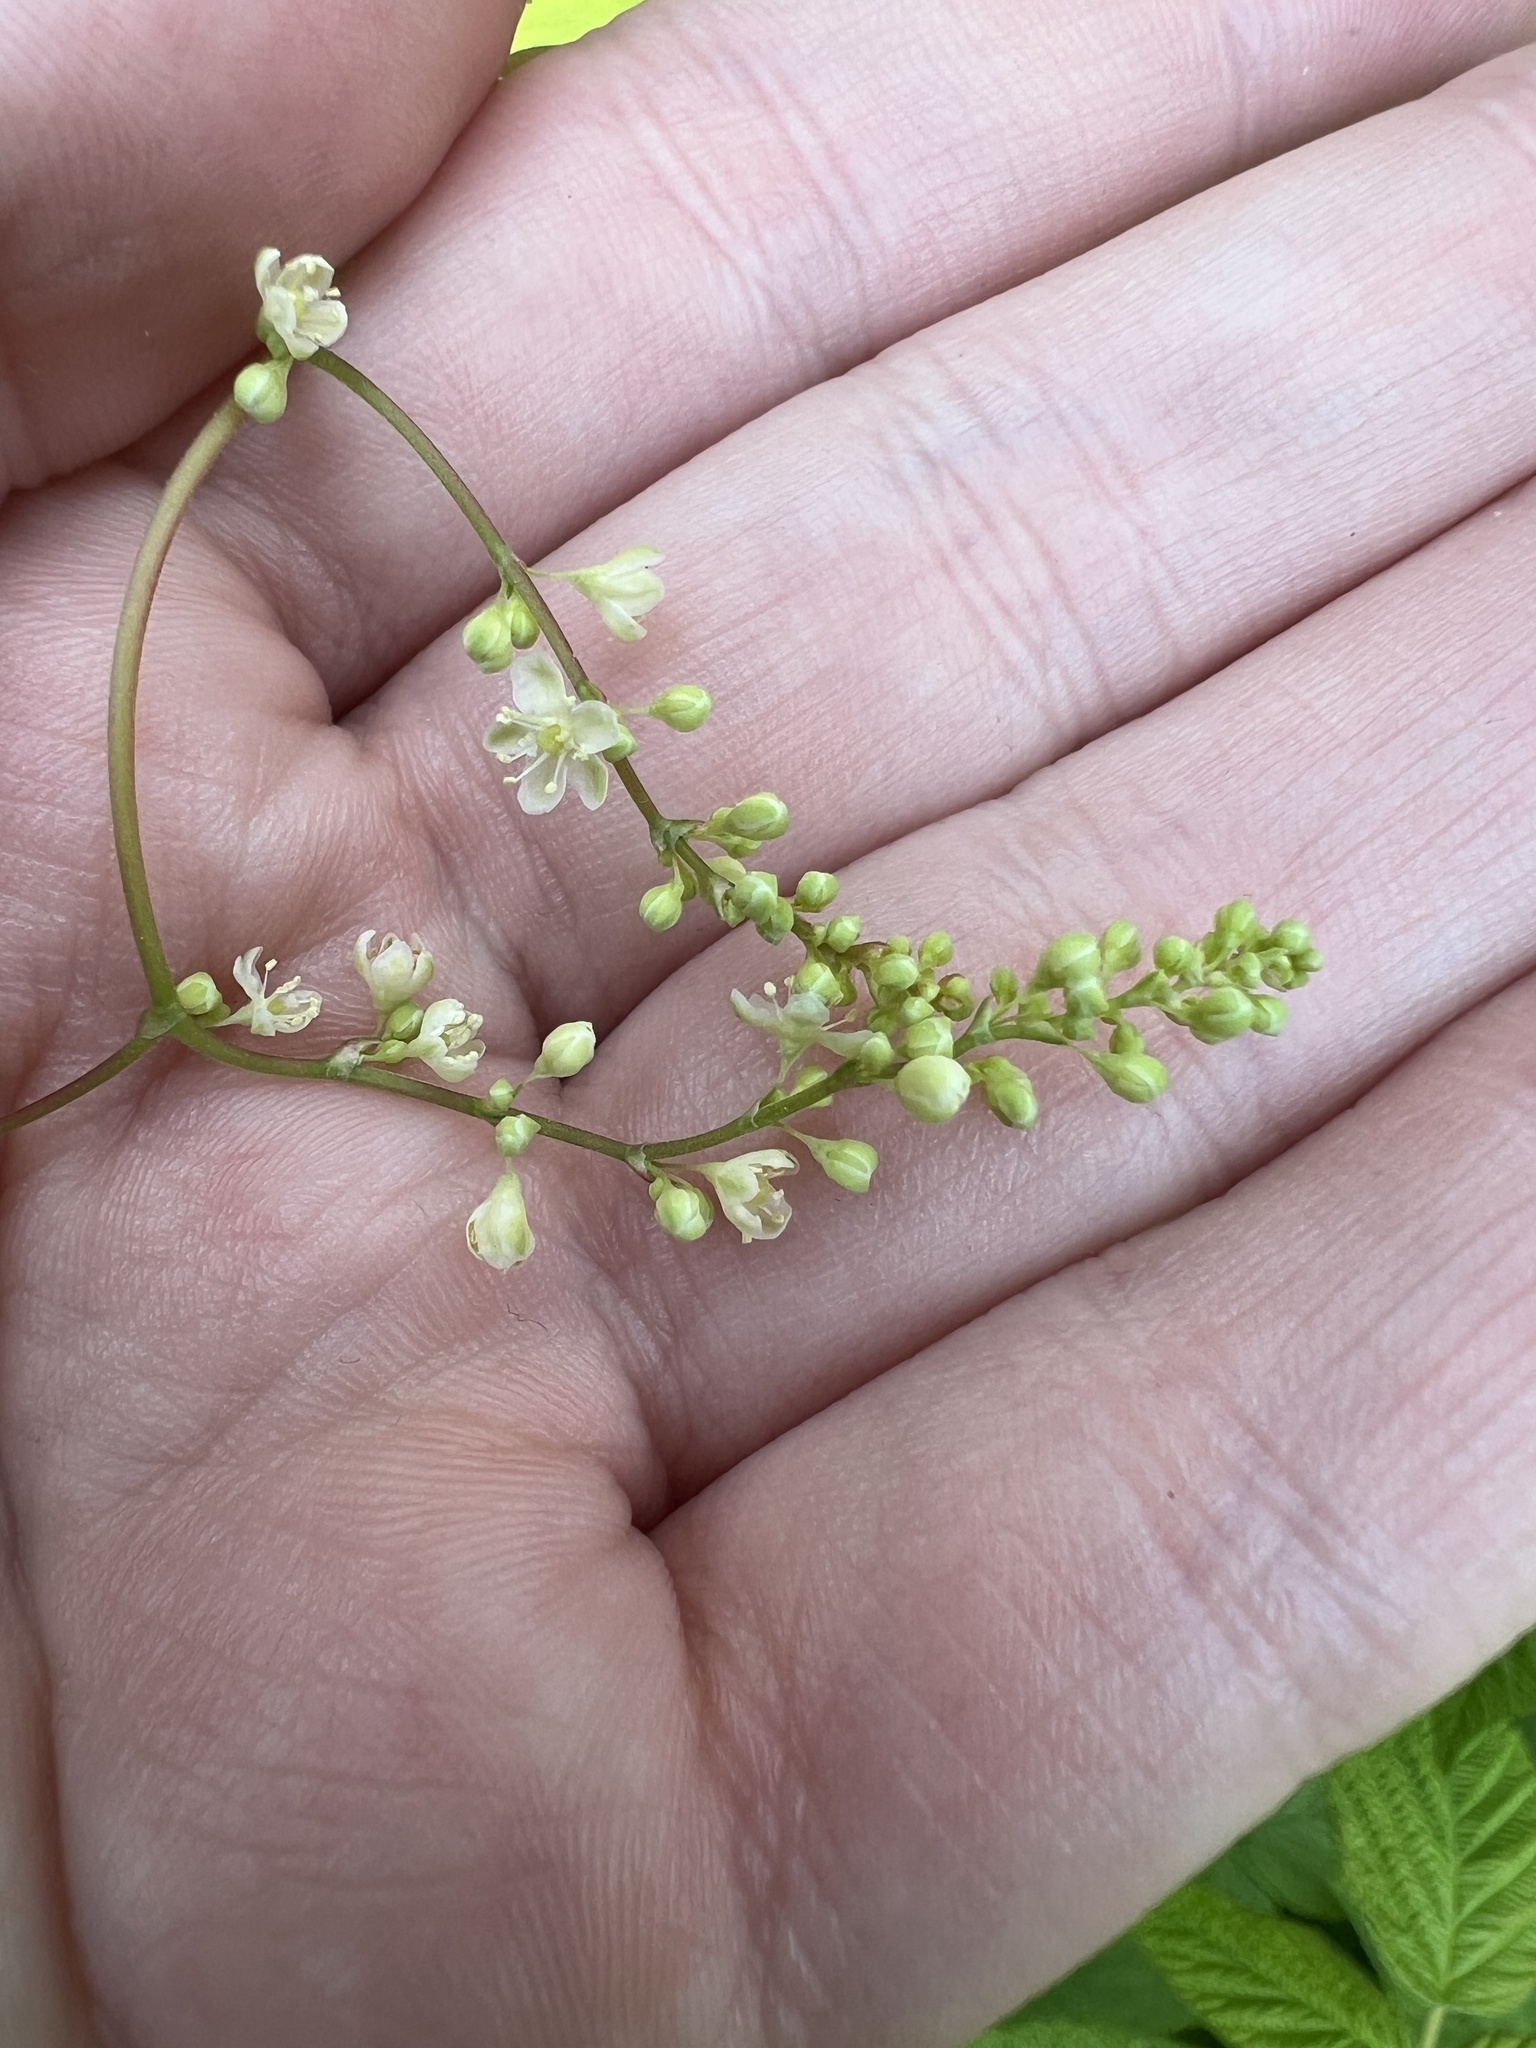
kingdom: Plantae
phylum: Tracheophyta
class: Magnoliopsida
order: Caryophyllales
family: Polygonaceae
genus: Parogonum
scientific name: Parogonum ciliinode
